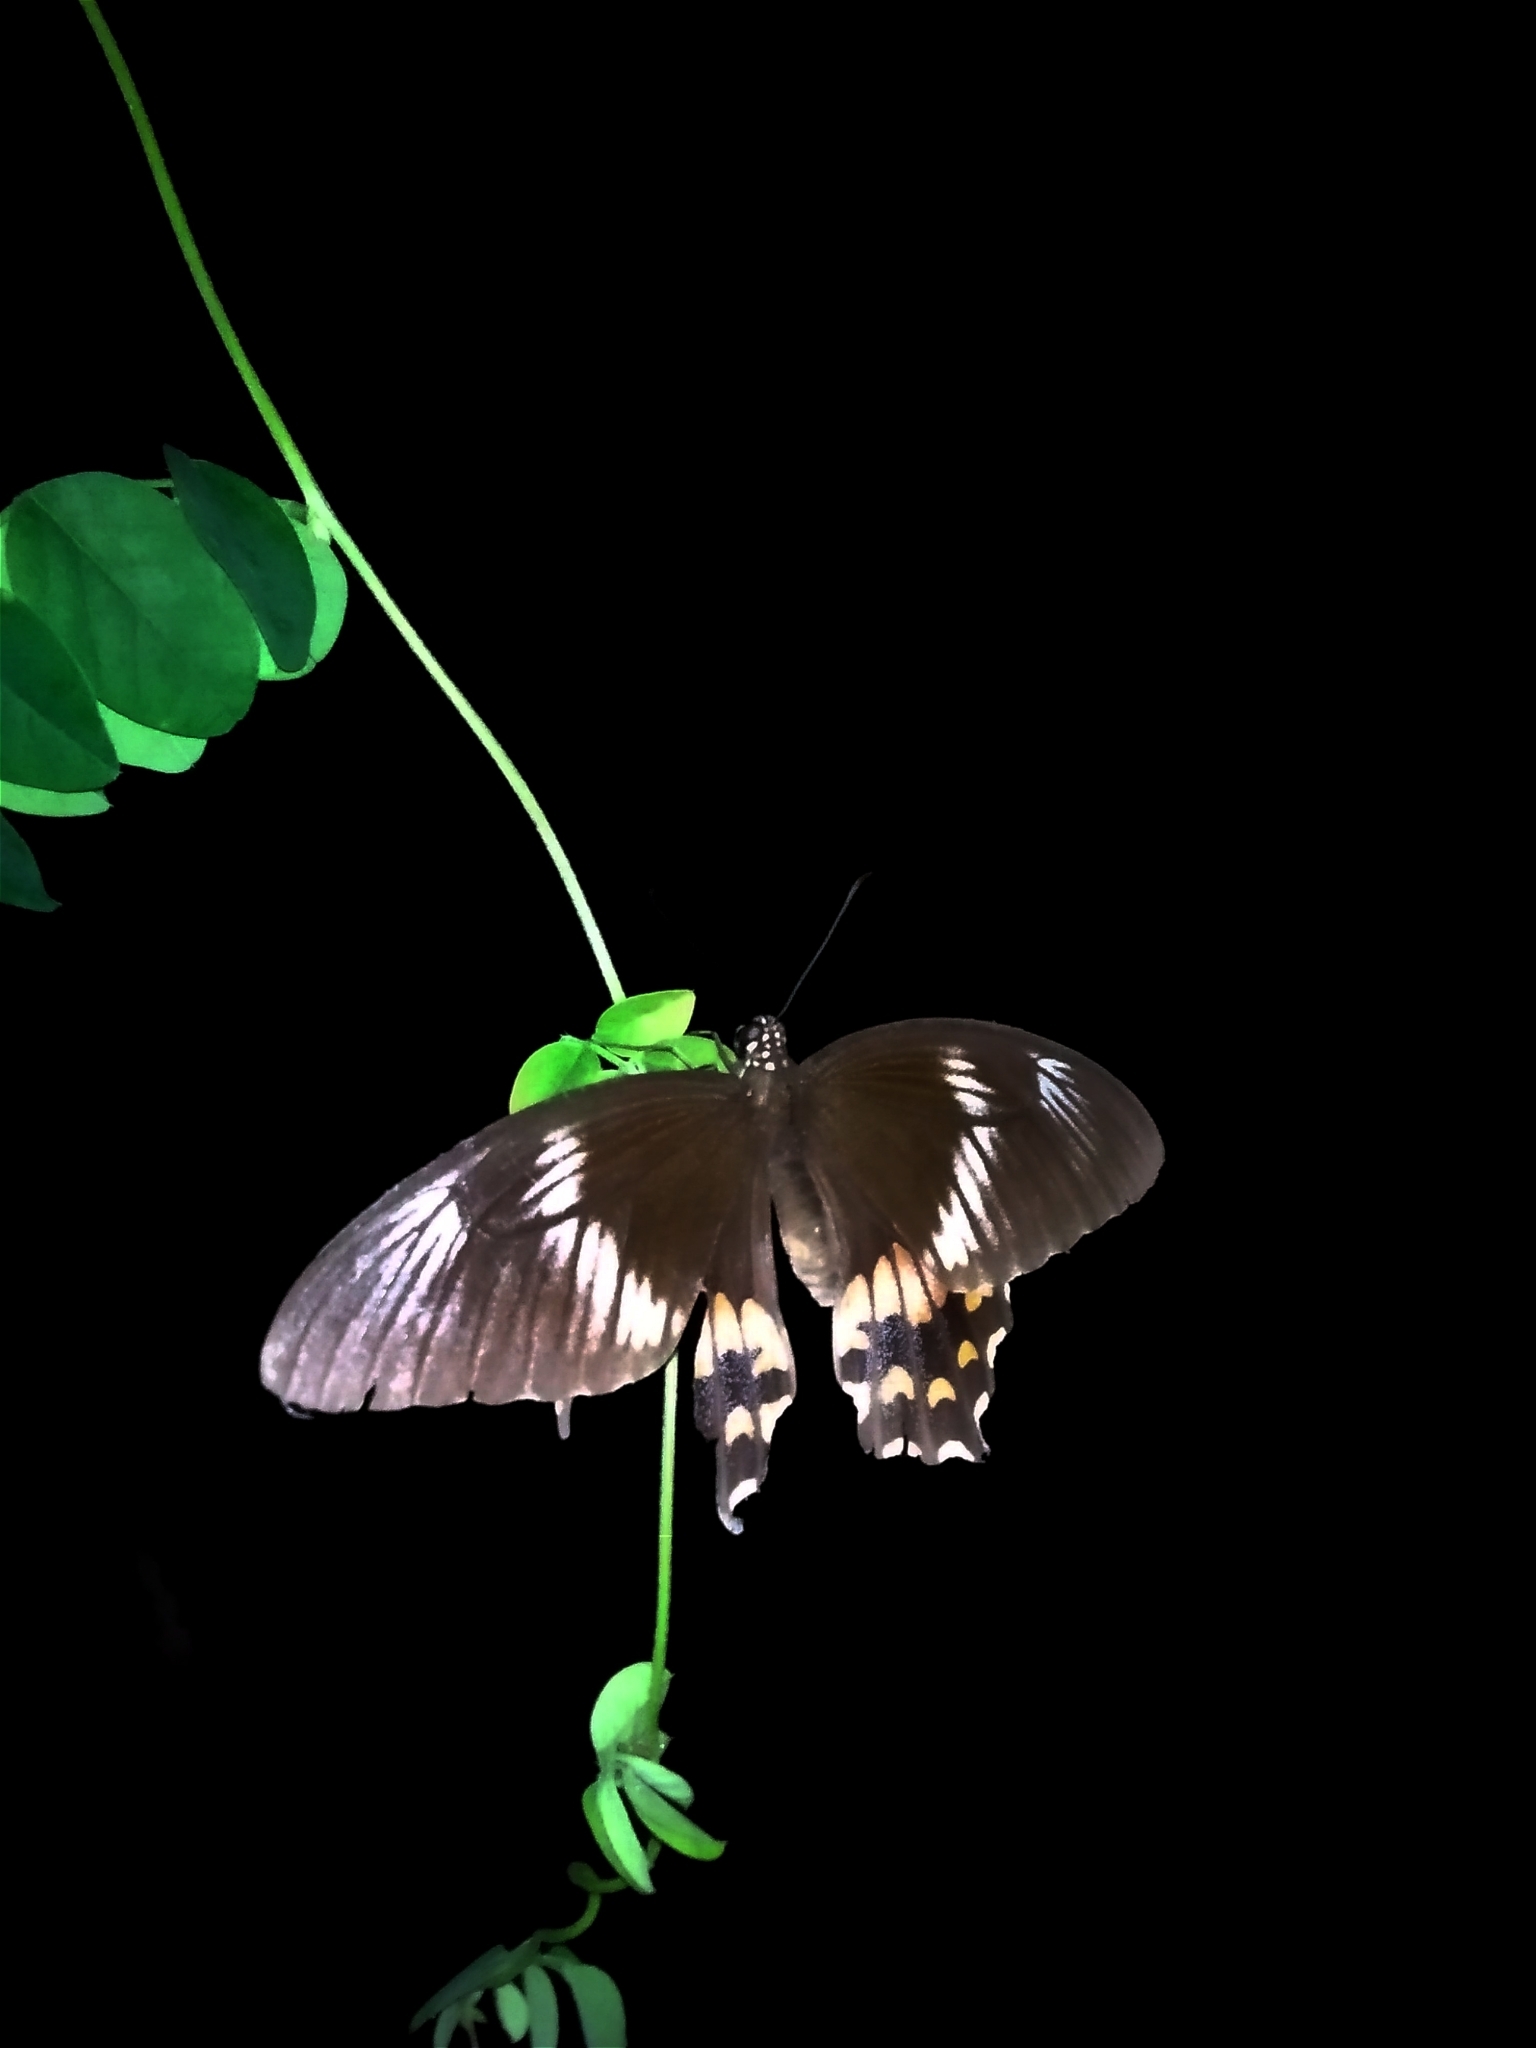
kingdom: Animalia
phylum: Arthropoda
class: Insecta
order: Lepidoptera
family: Papilionidae
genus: Papilio
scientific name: Papilio polytes
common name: Common mormon
